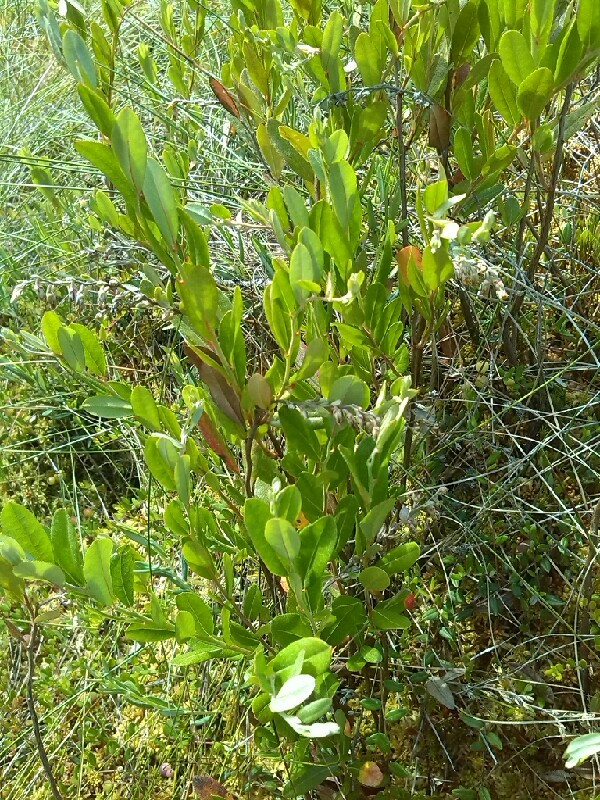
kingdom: Plantae
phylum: Tracheophyta
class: Magnoliopsida
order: Ericales
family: Ericaceae
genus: Chamaedaphne
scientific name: Chamaedaphne calyculata
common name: Leatherleaf
